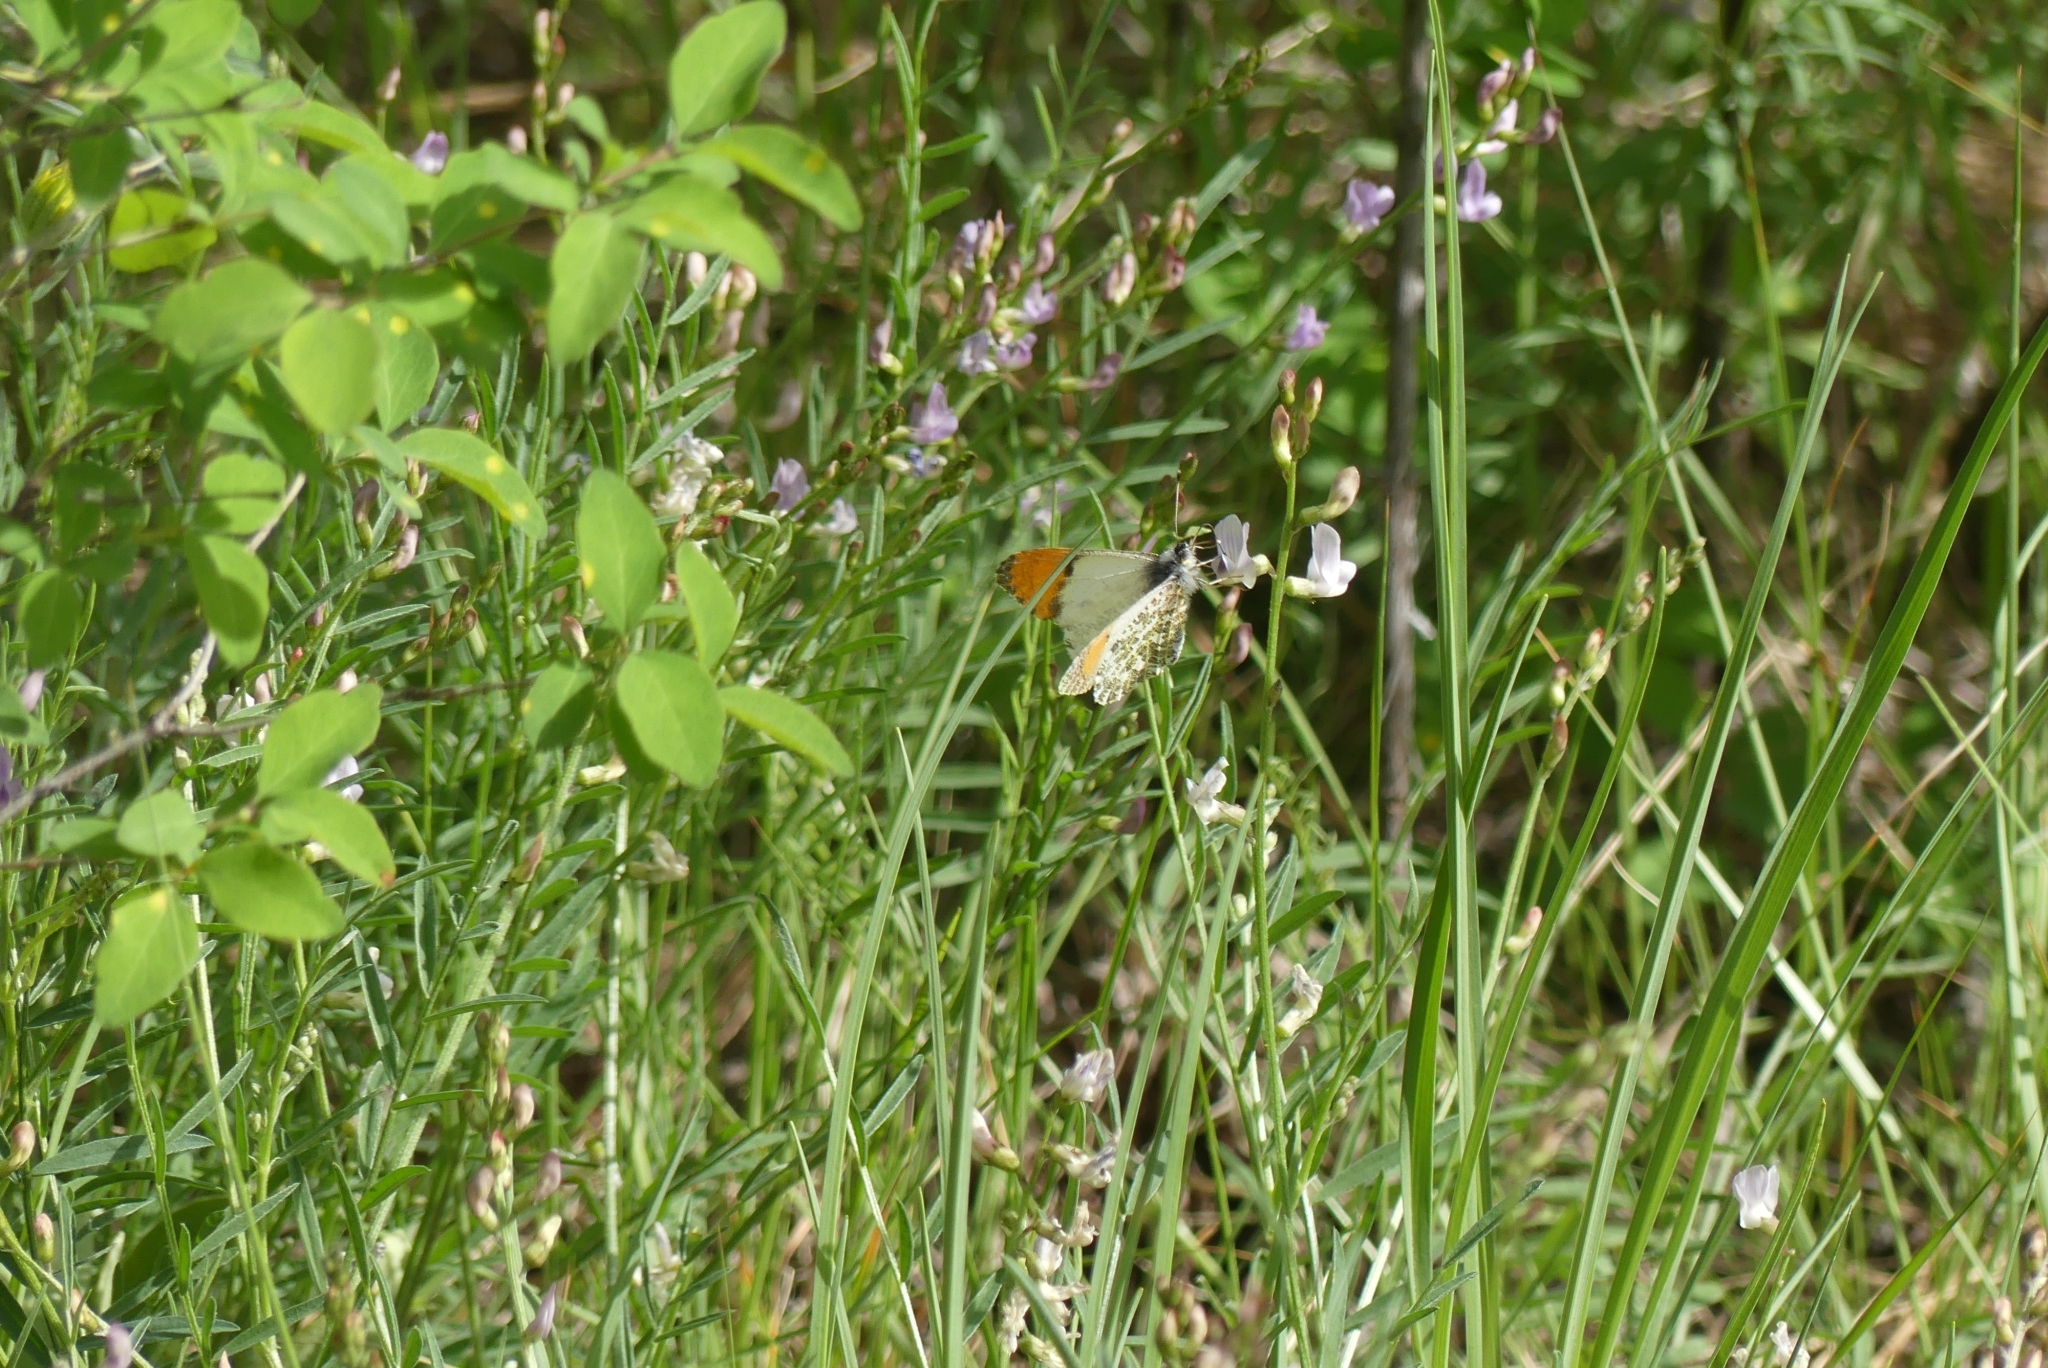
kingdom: Animalia
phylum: Arthropoda
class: Insecta
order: Lepidoptera
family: Pieridae
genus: Anthocharis
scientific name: Anthocharis julia
